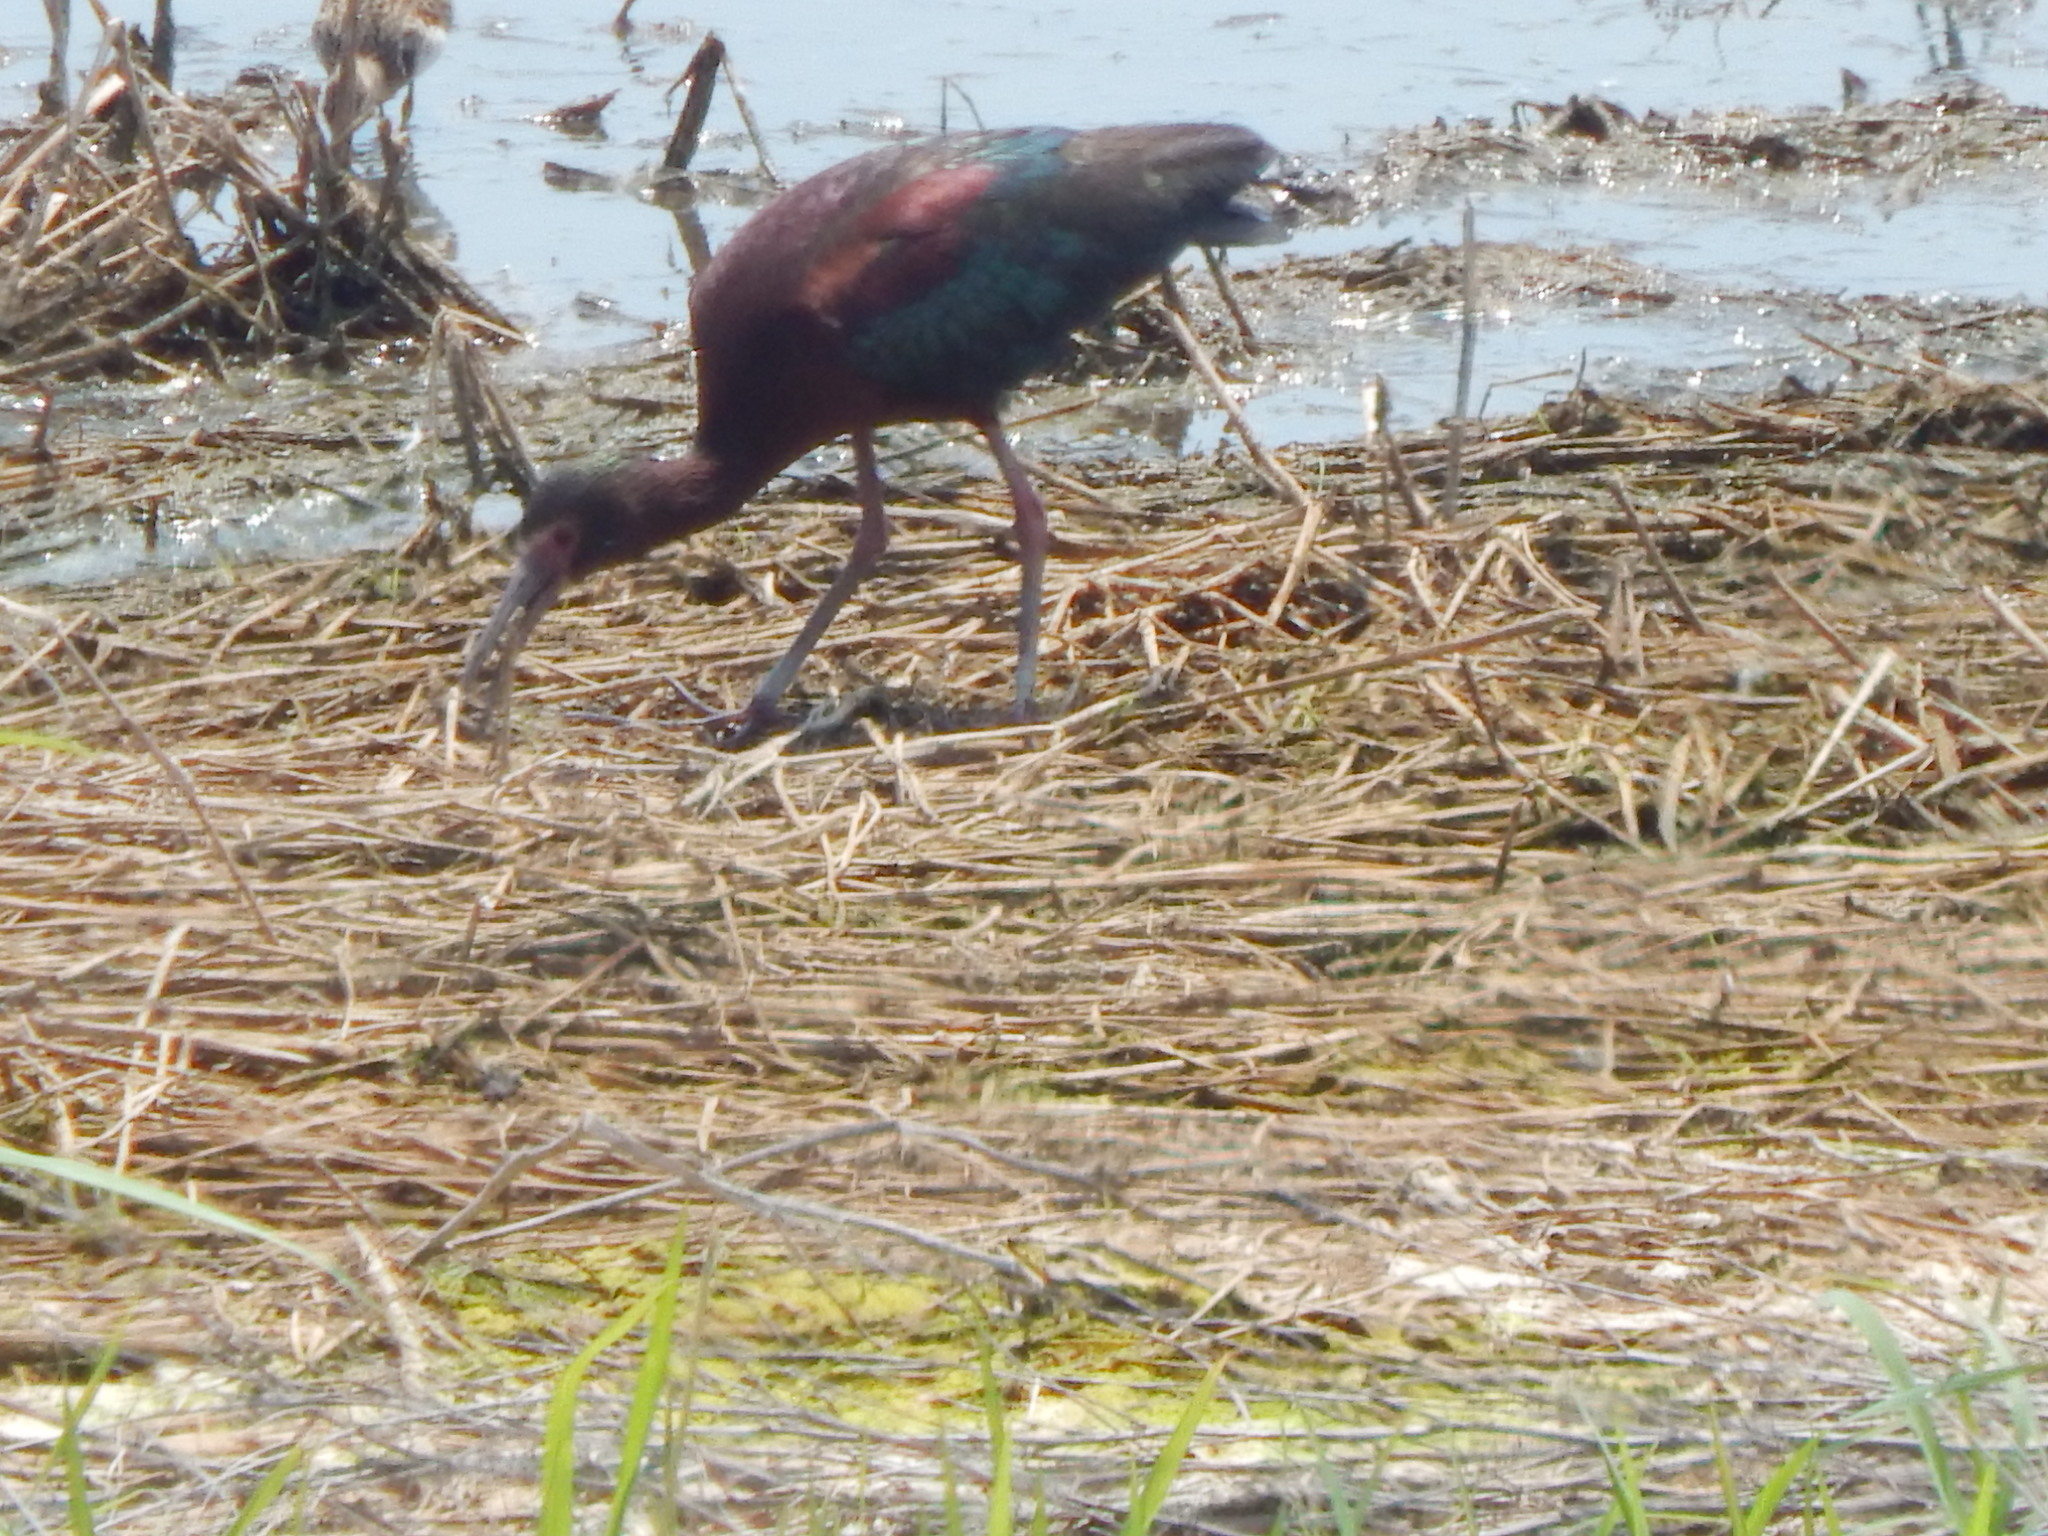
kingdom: Animalia
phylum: Chordata
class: Aves
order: Pelecaniformes
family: Threskiornithidae
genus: Plegadis
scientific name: Plegadis chihi
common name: White-faced ibis
